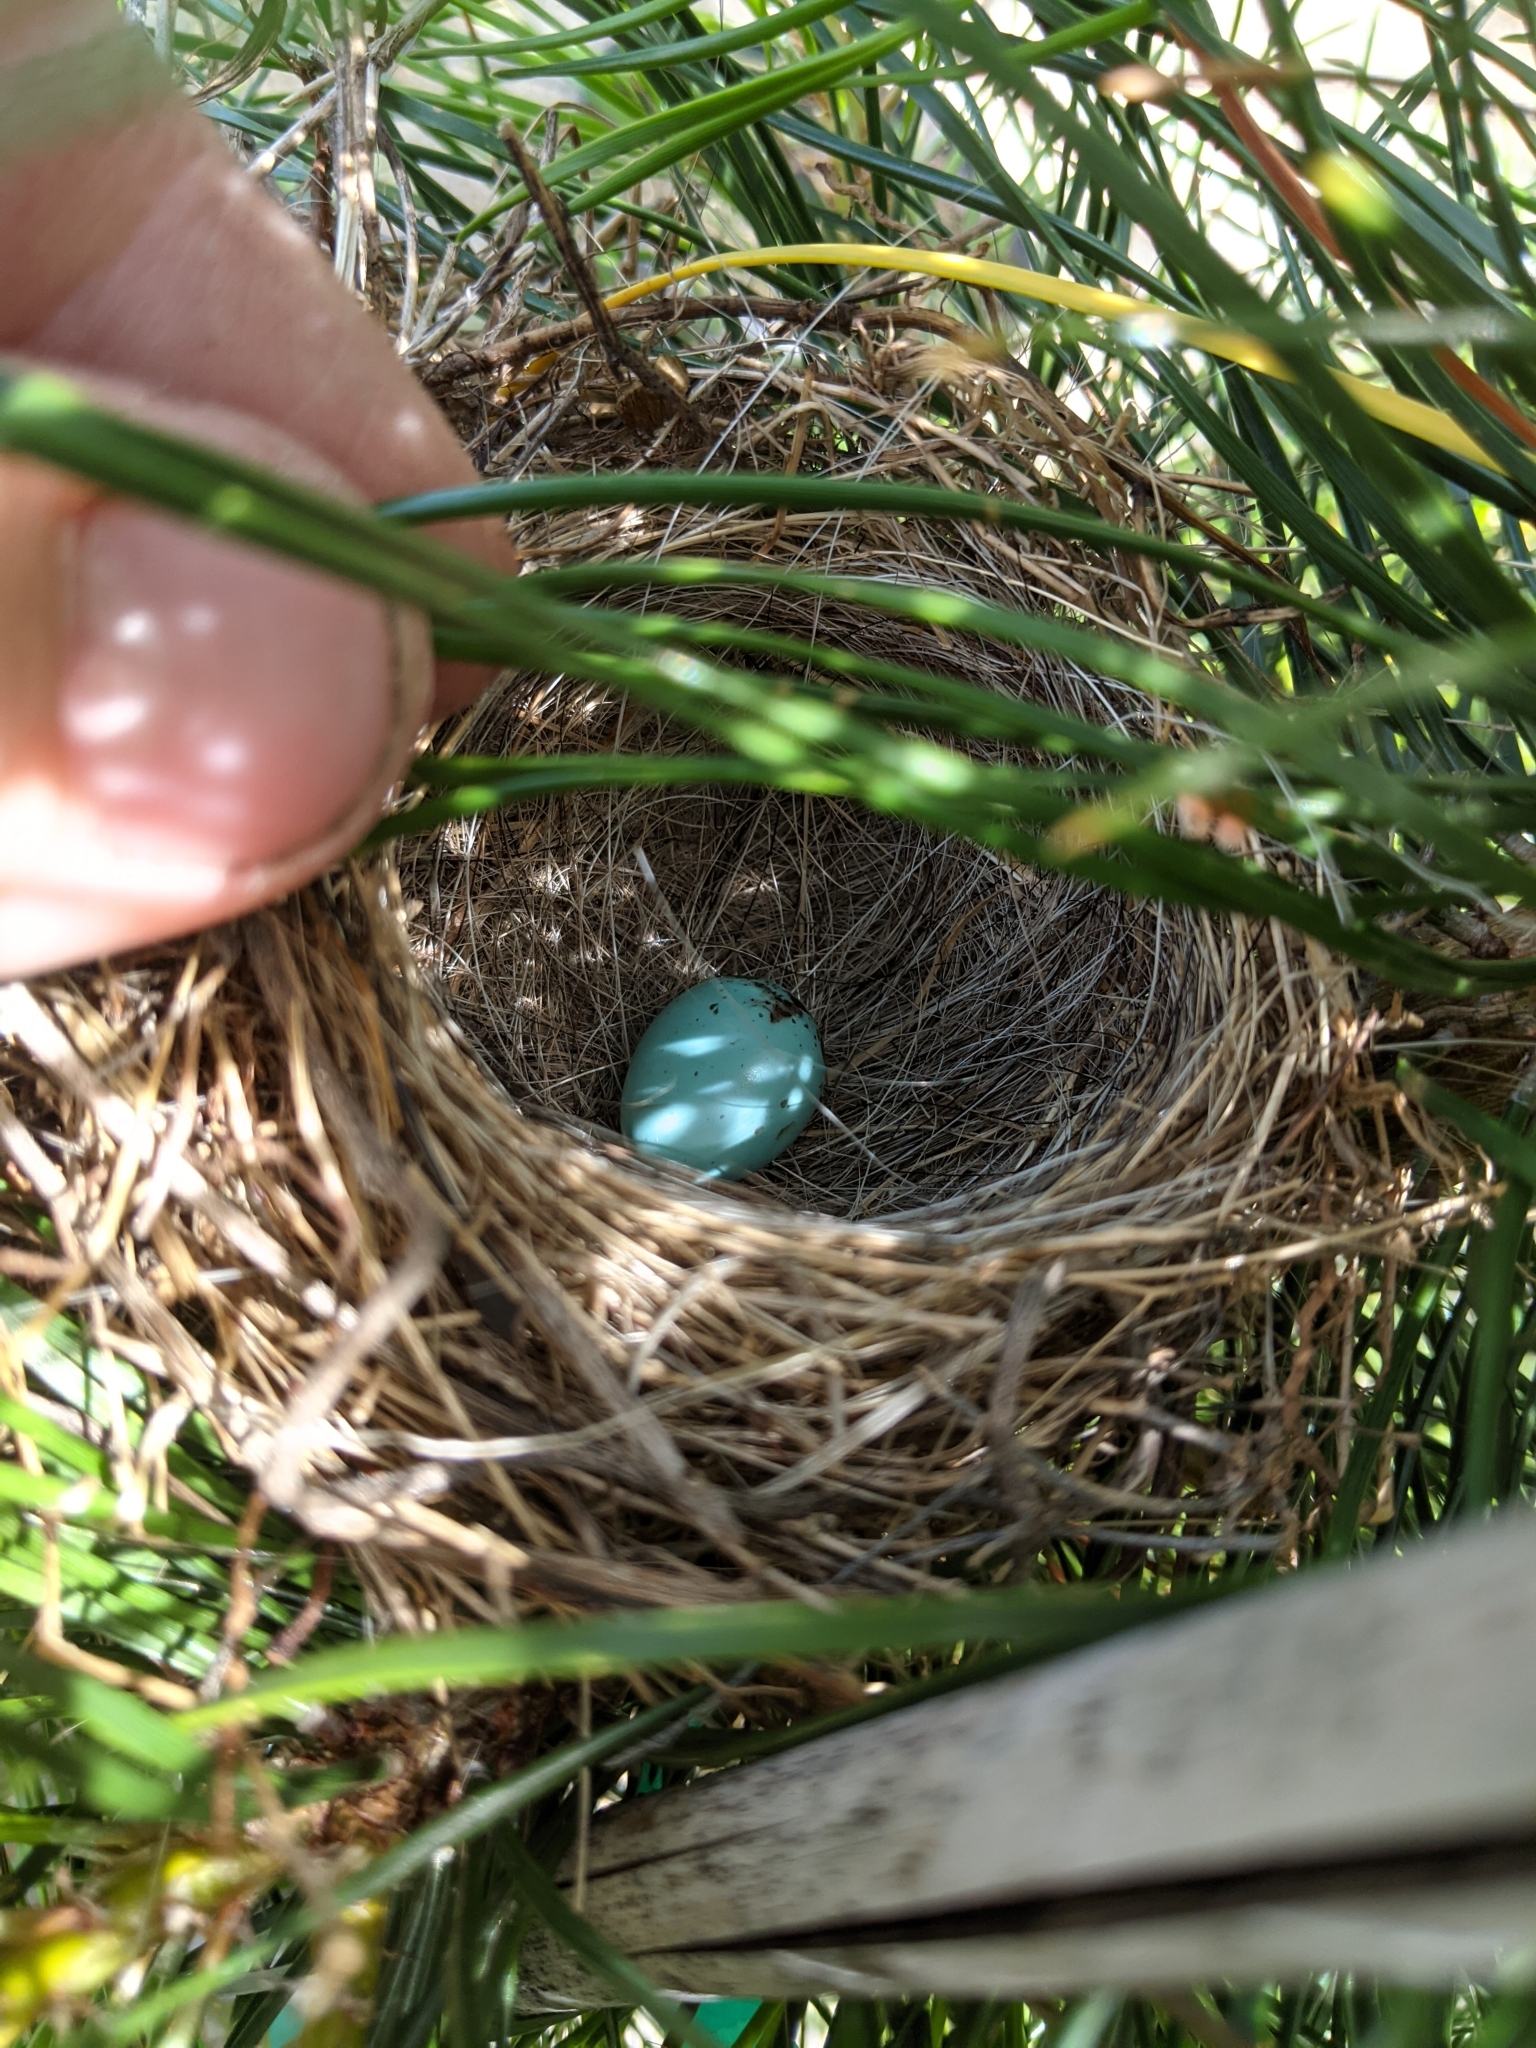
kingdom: Animalia
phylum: Chordata
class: Aves
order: Passeriformes
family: Turdidae
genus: Turdus
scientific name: Turdus migratorius
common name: American robin
